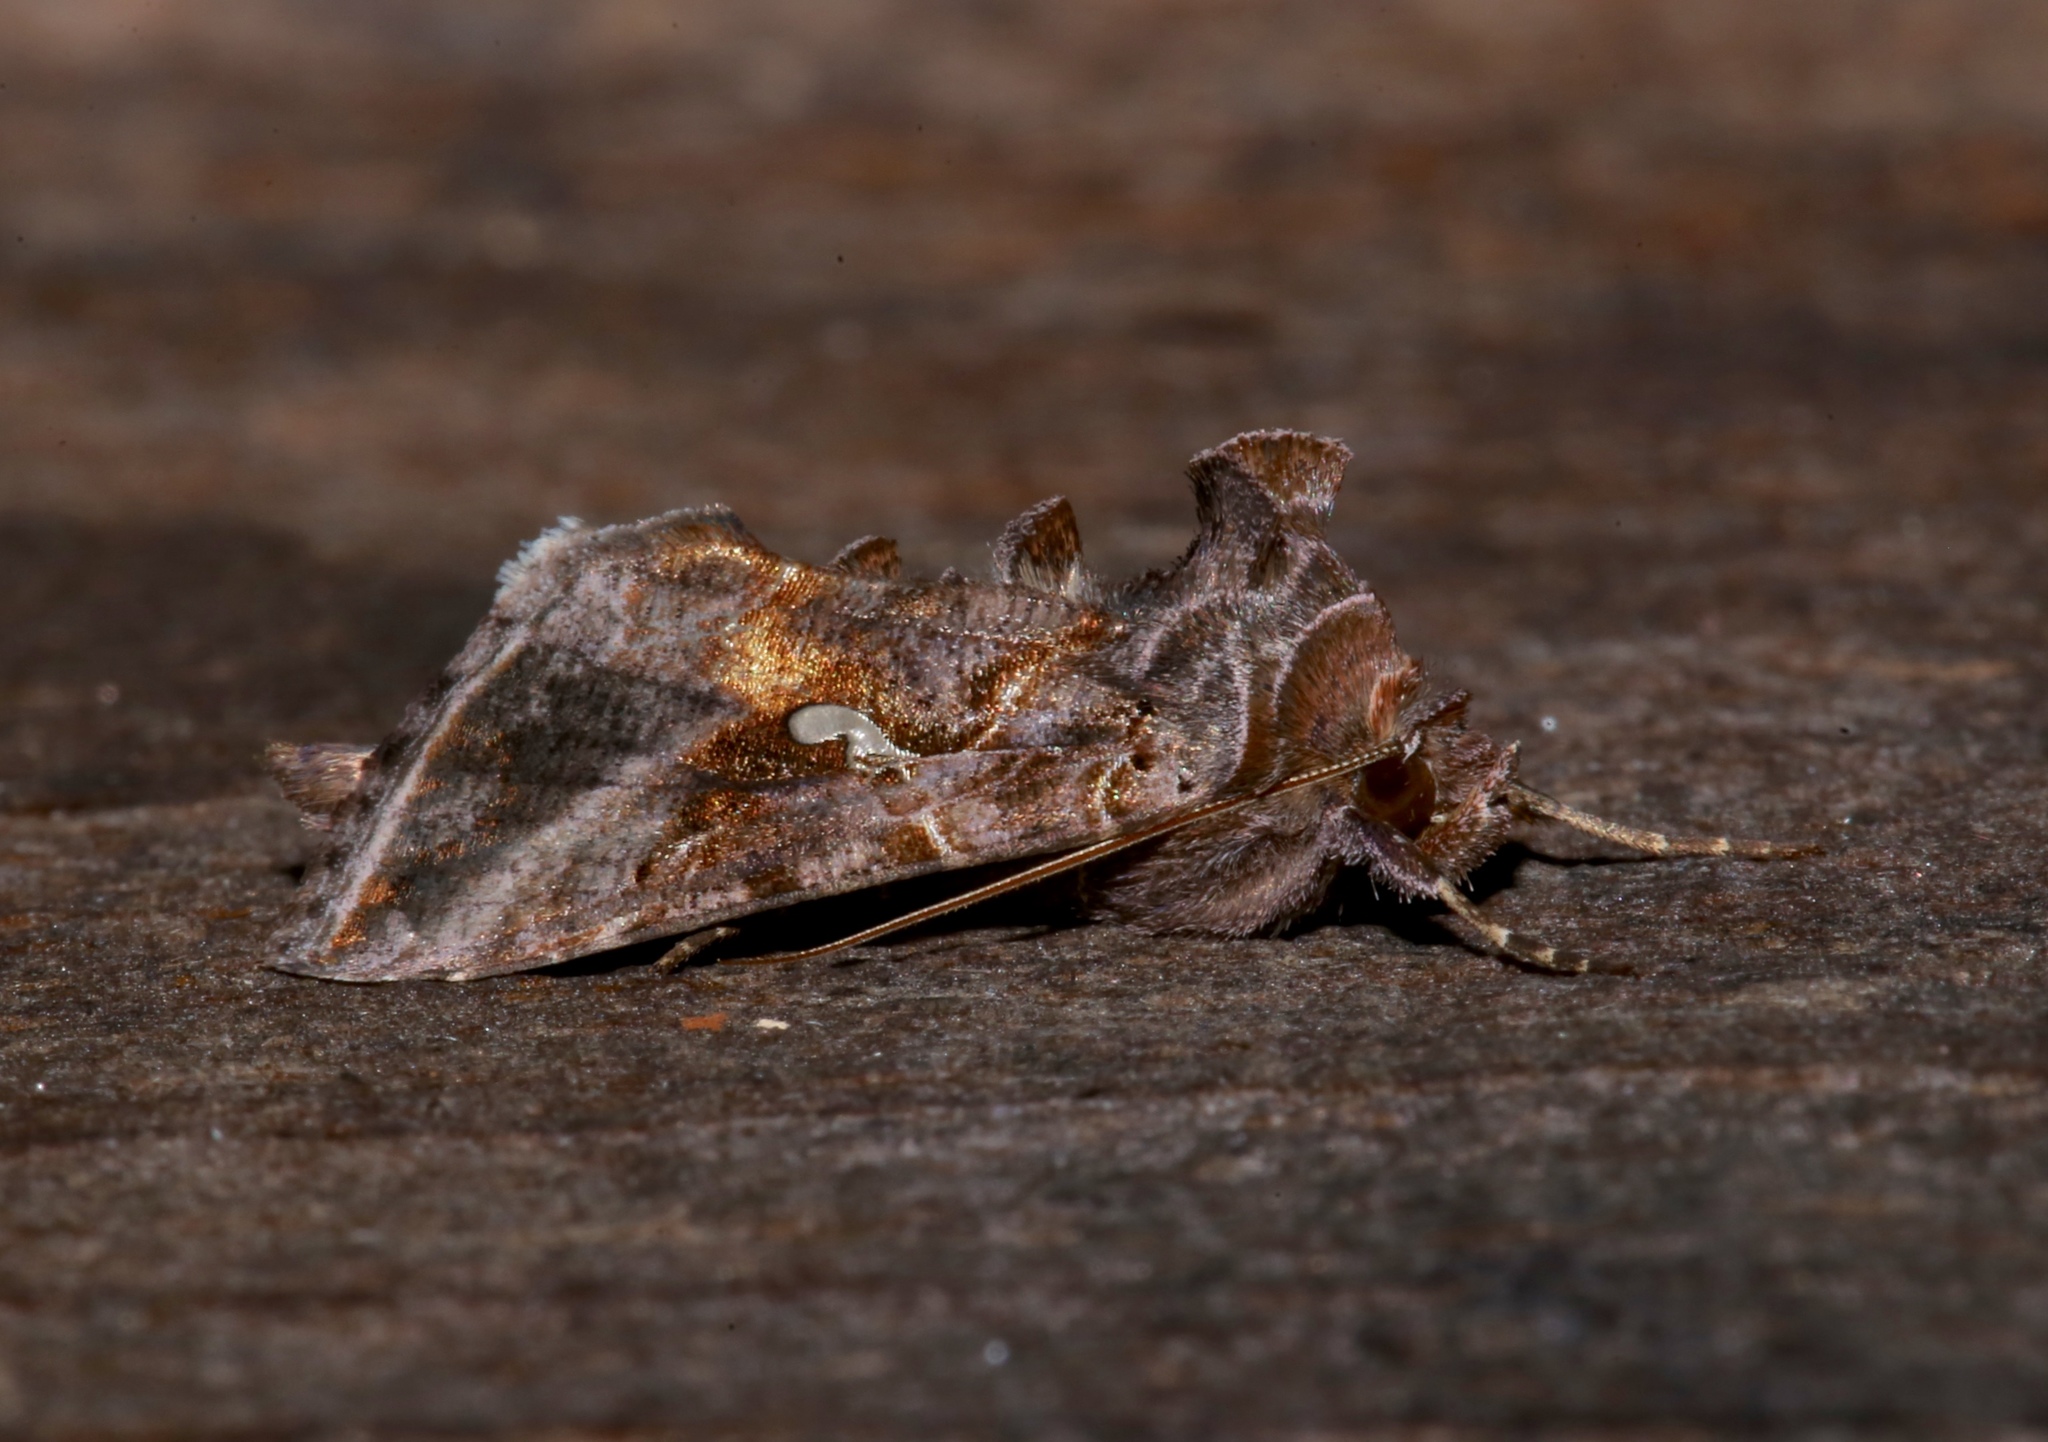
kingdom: Animalia
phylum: Arthropoda
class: Insecta
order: Lepidoptera
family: Noctuidae
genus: Autographa
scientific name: Autographa precationis
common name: Common looper moth
